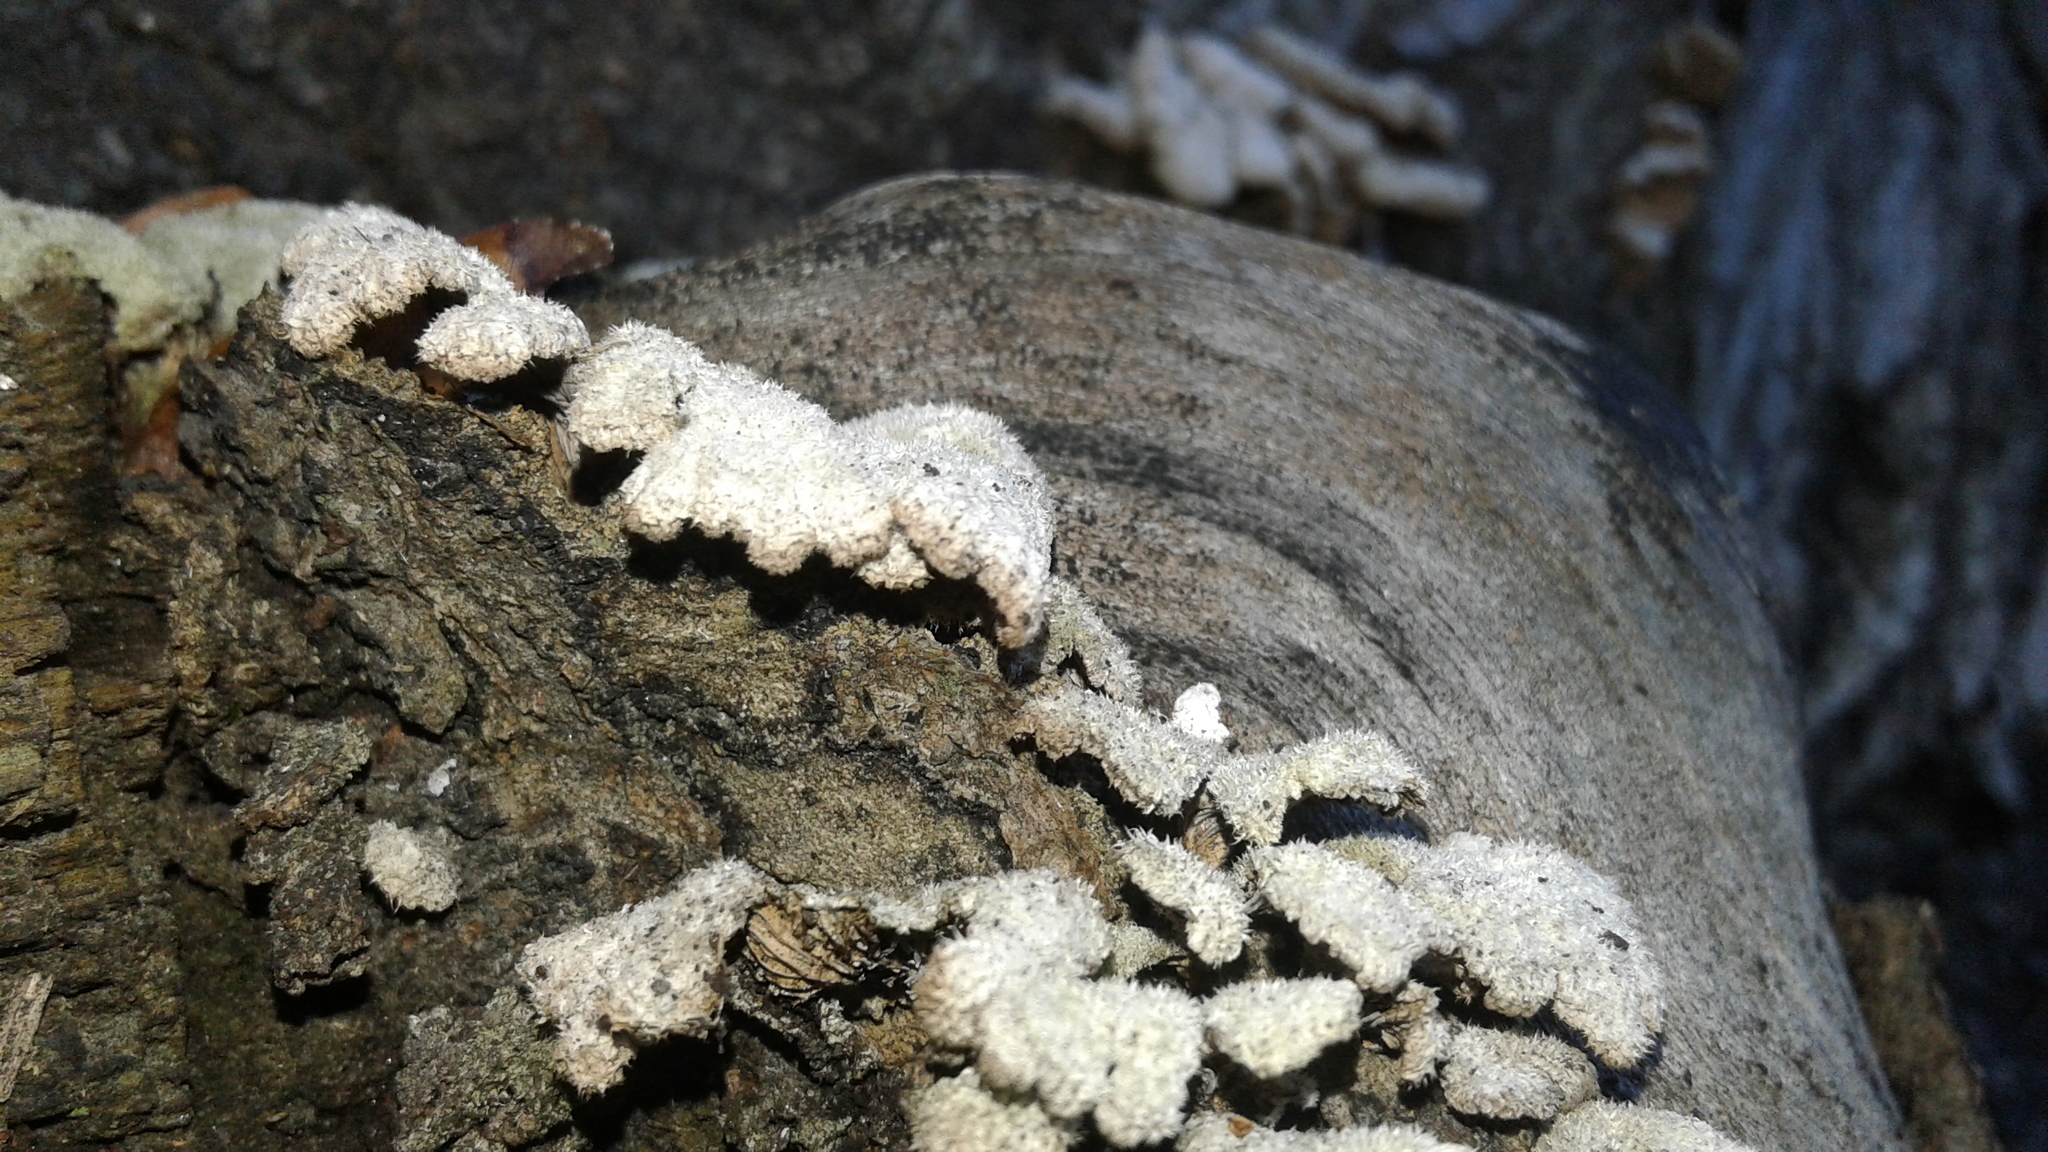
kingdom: Fungi
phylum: Basidiomycota
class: Agaricomycetes
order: Agaricales
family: Schizophyllaceae
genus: Schizophyllum
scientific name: Schizophyllum commune
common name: Common porecrust
